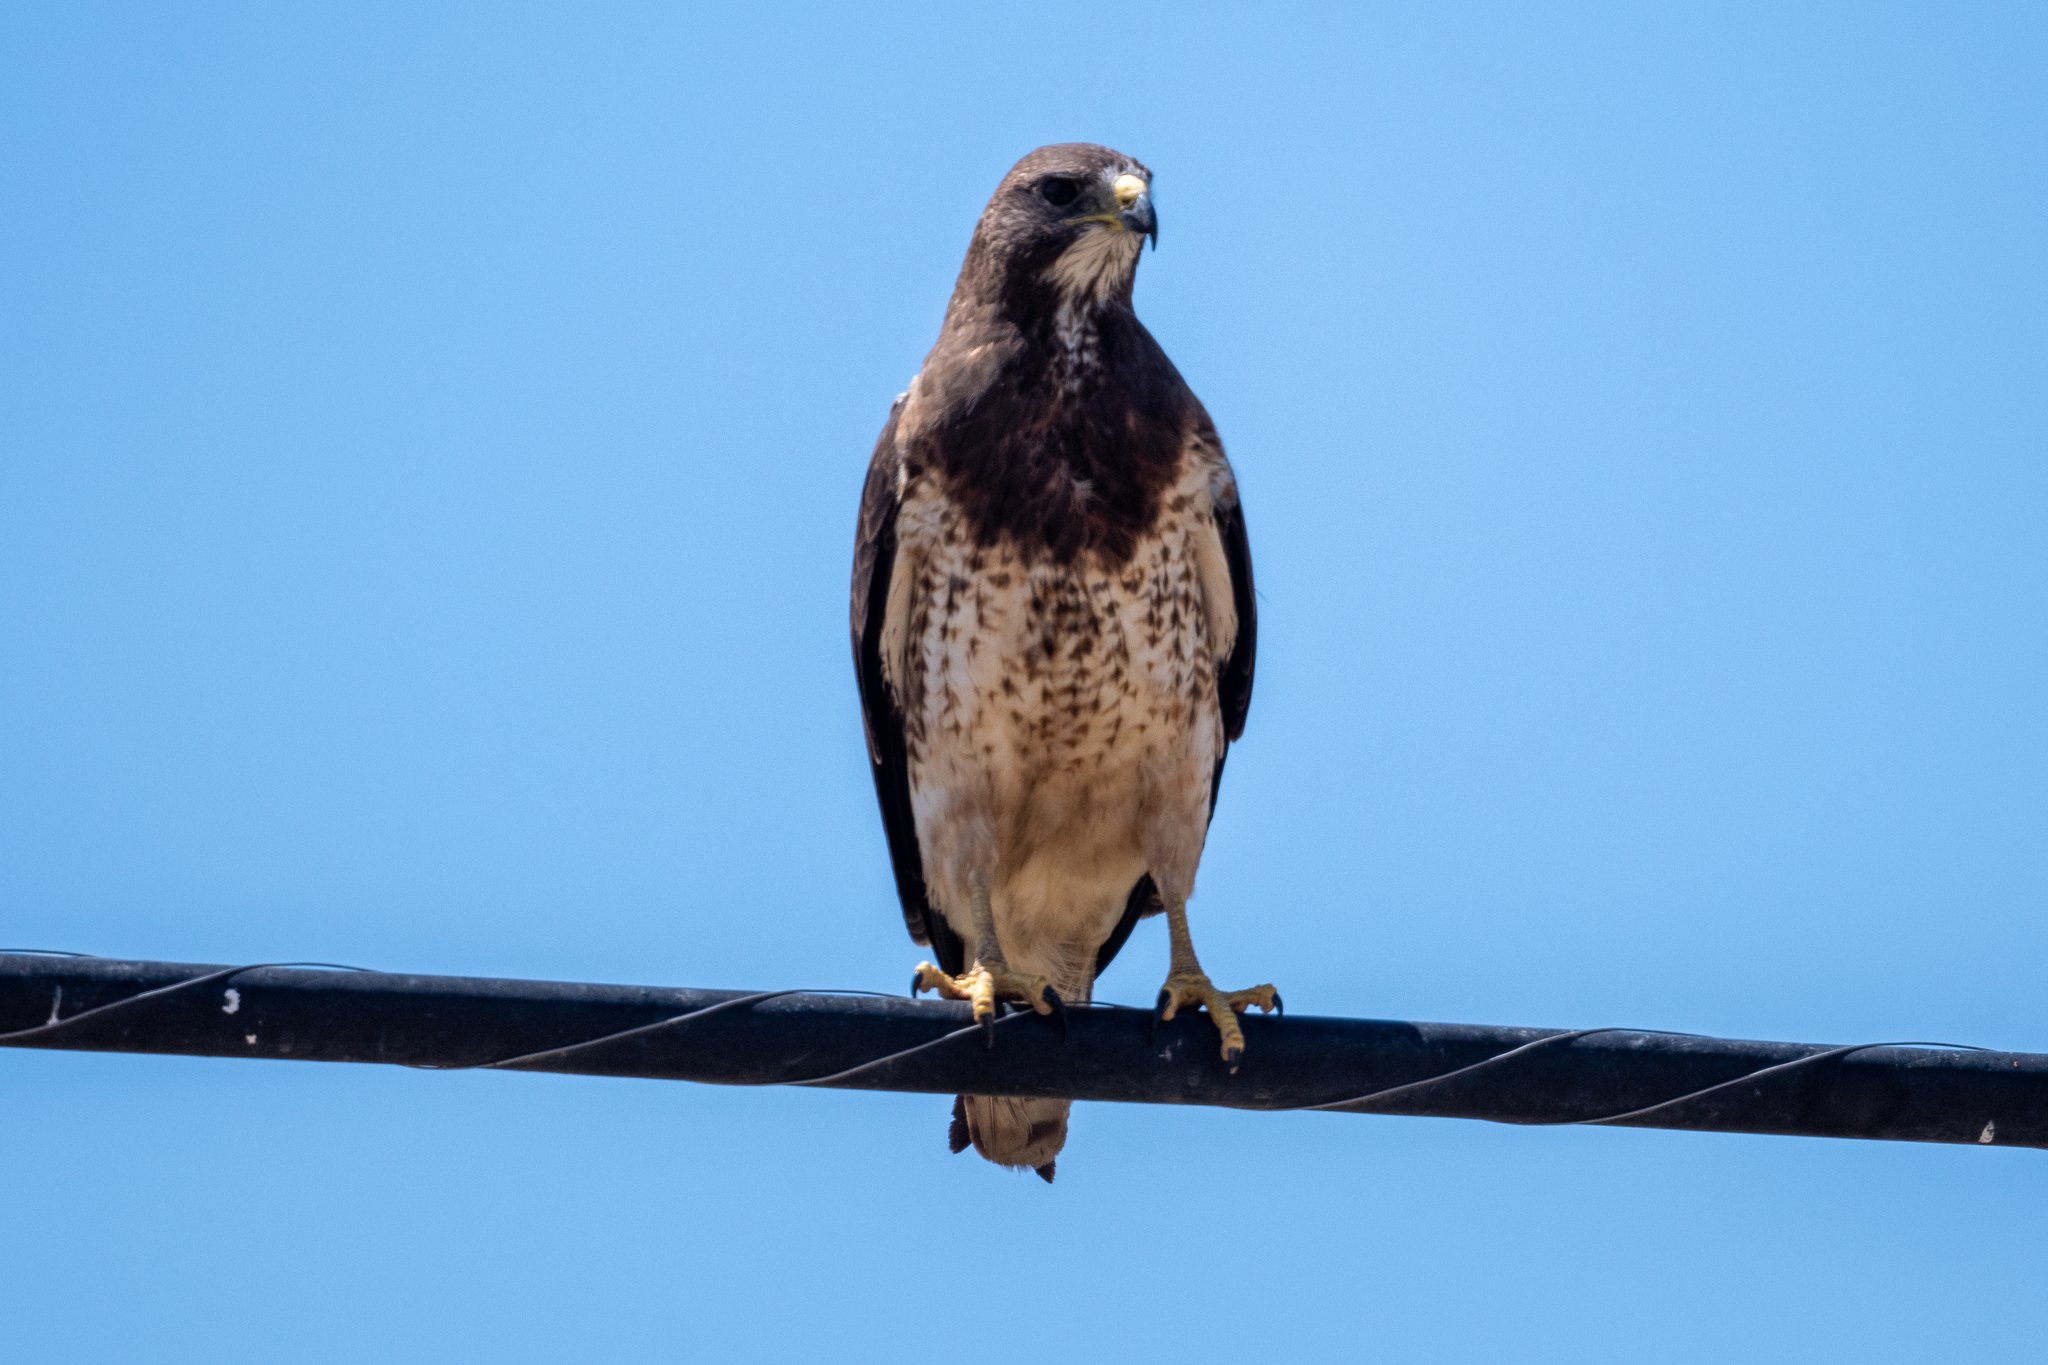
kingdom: Animalia
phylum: Chordata
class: Aves
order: Accipitriformes
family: Accipitridae
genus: Buteo
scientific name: Buteo swainsoni
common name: Swainson's hawk
